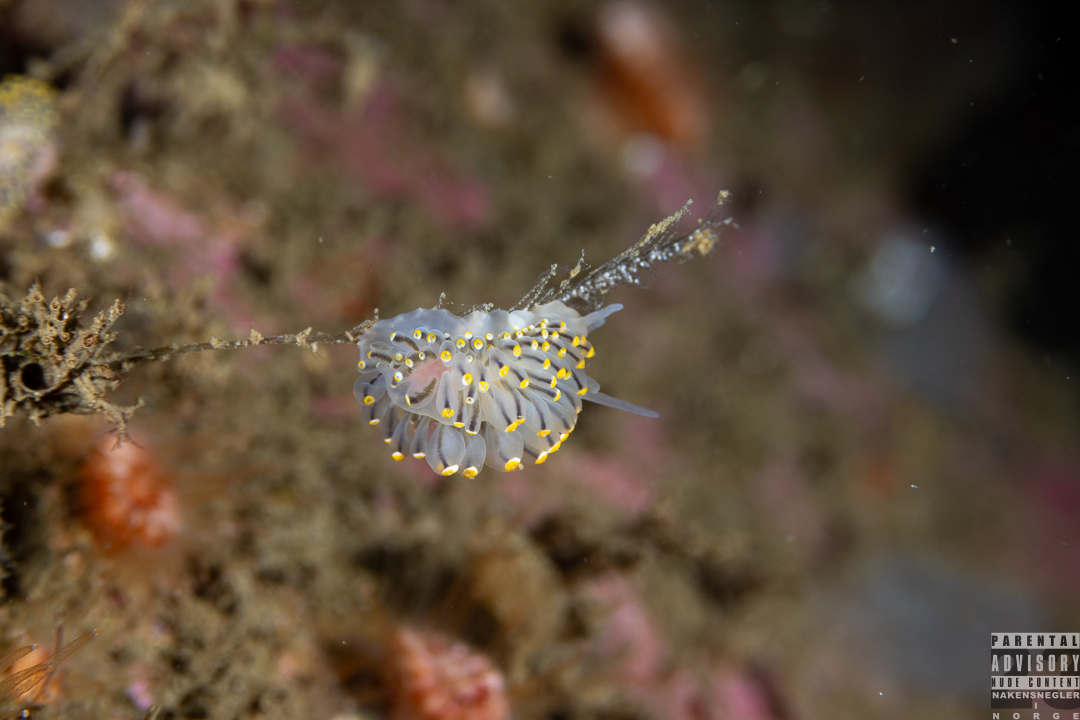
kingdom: Animalia
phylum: Mollusca
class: Gastropoda
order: Nudibranchia
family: Eubranchidae
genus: Eubranchus
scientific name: Eubranchus tricolor
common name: Painted balloon aeolis
